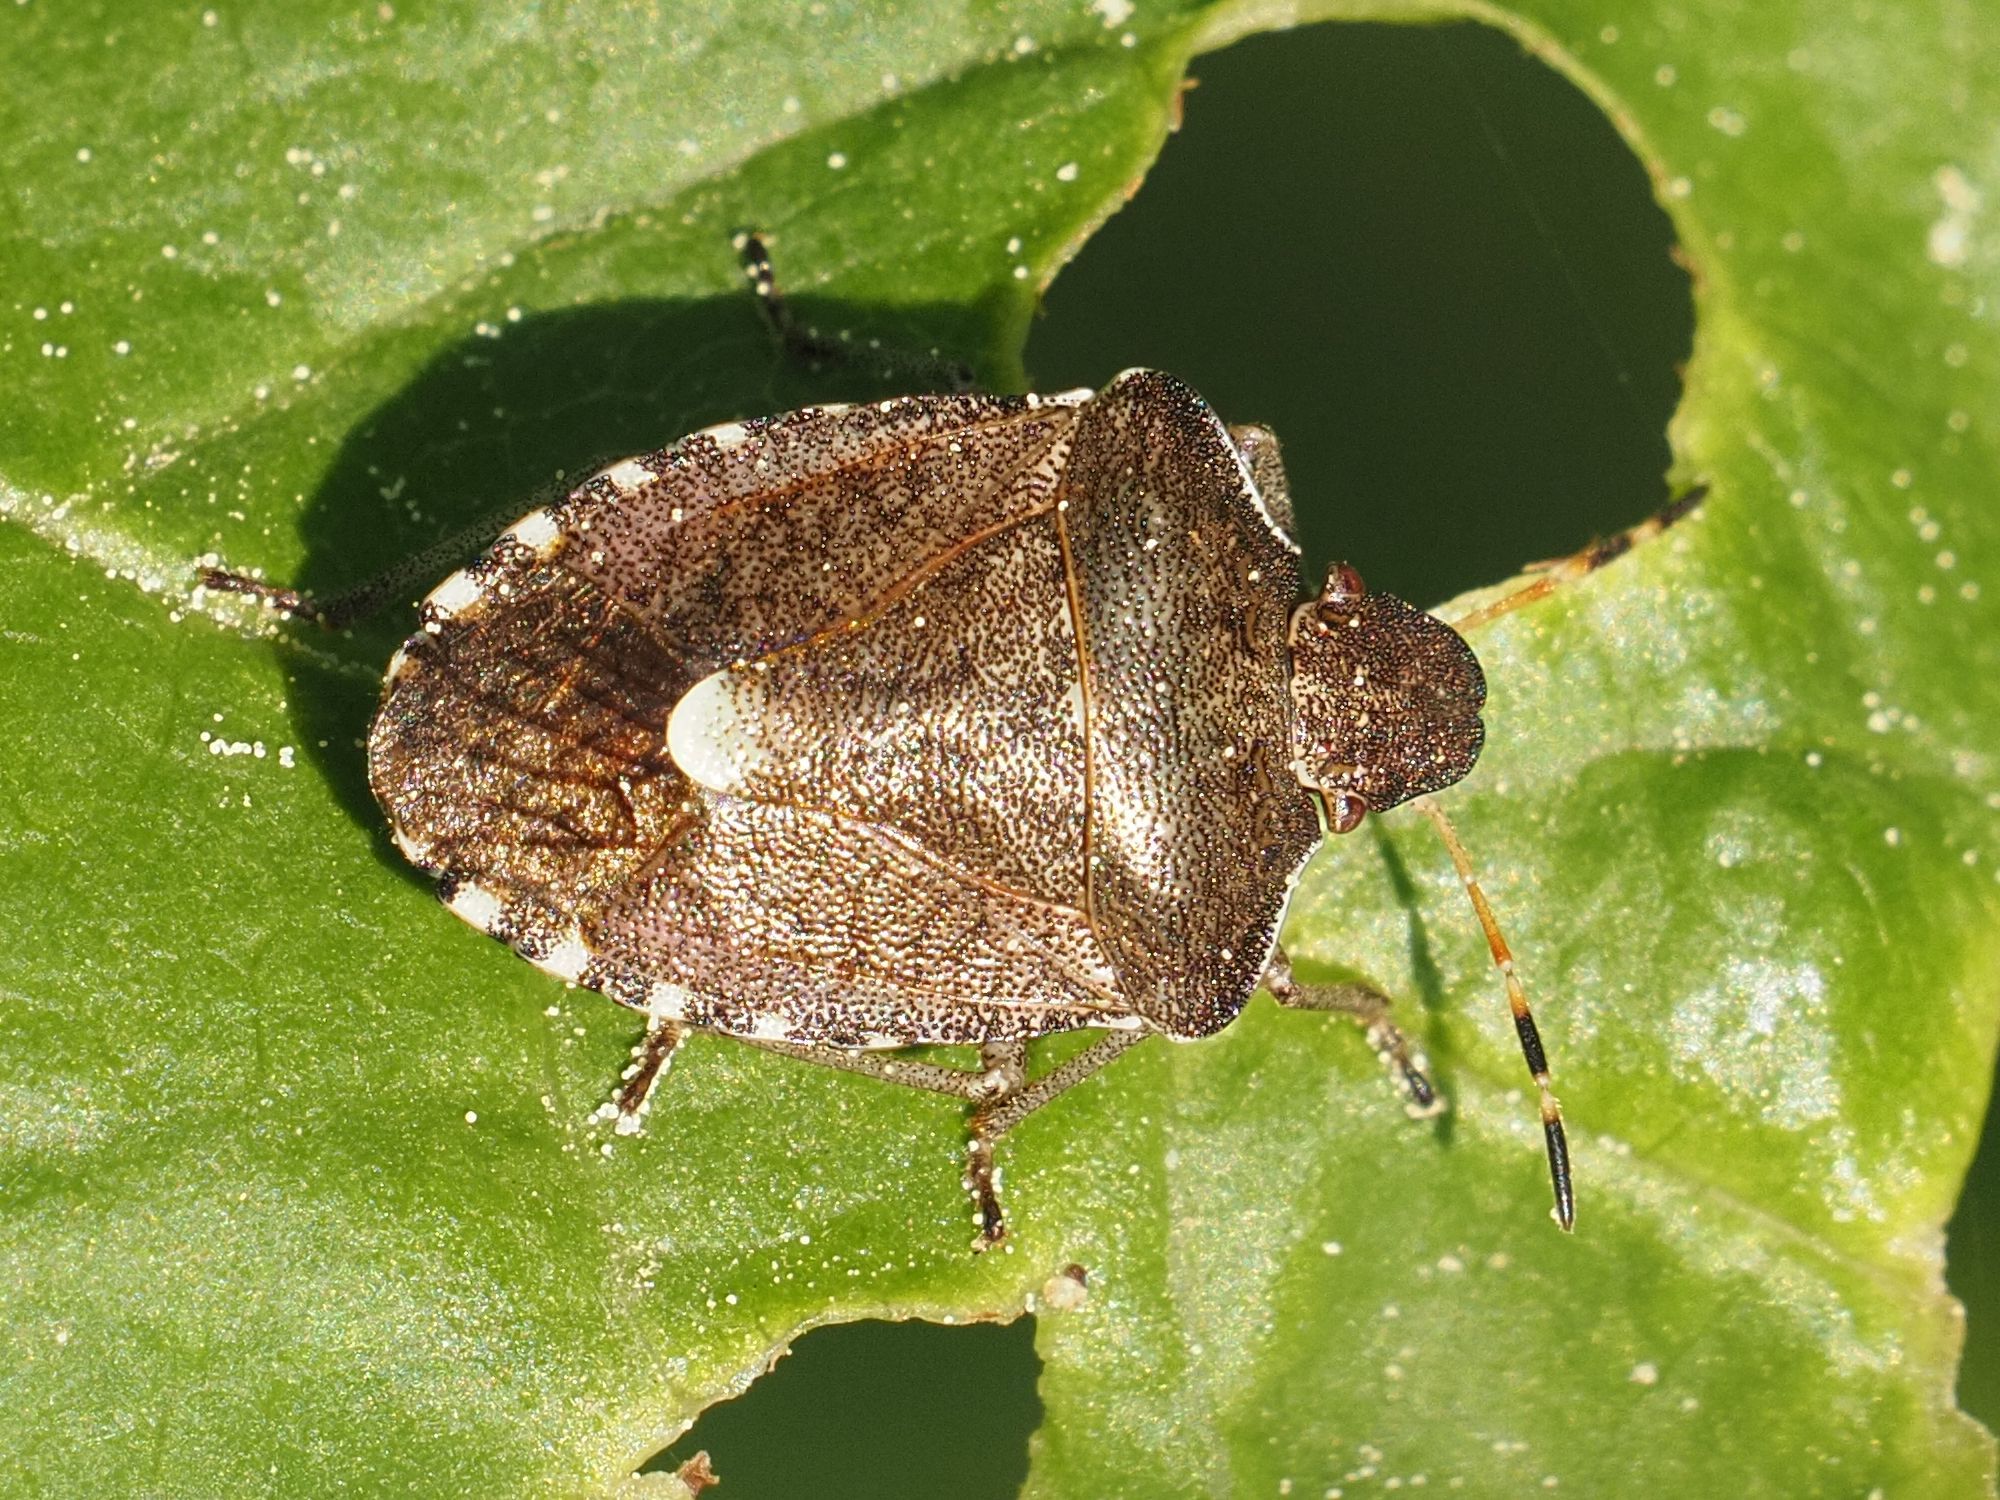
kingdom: Animalia
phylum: Arthropoda
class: Insecta
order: Hemiptera
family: Pentatomidae
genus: Holcostethus
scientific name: Holcostethus strictus
